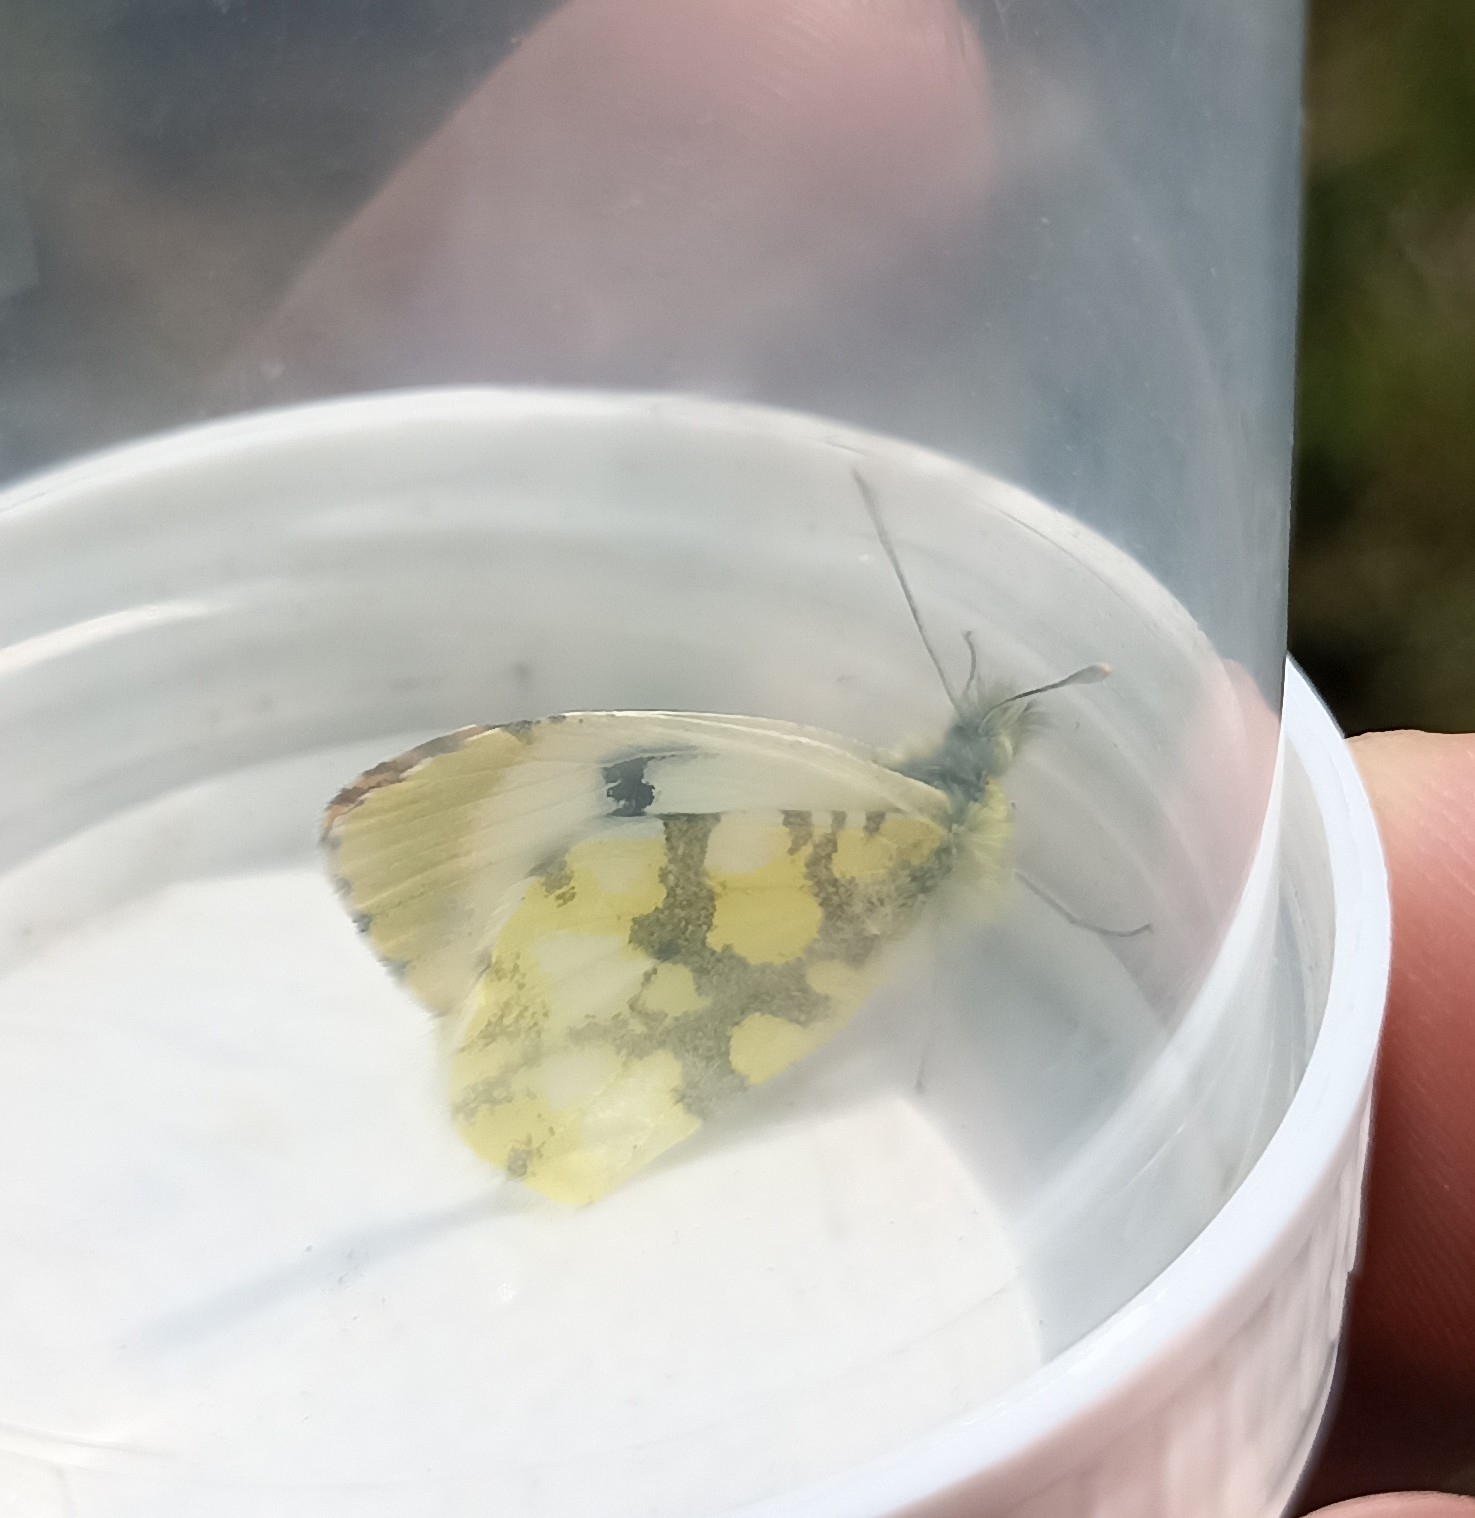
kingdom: Animalia
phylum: Arthropoda
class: Insecta
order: Lepidoptera
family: Pieridae
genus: Anthocharis
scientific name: Anthocharis euphenoides
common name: Provence orange-tip
